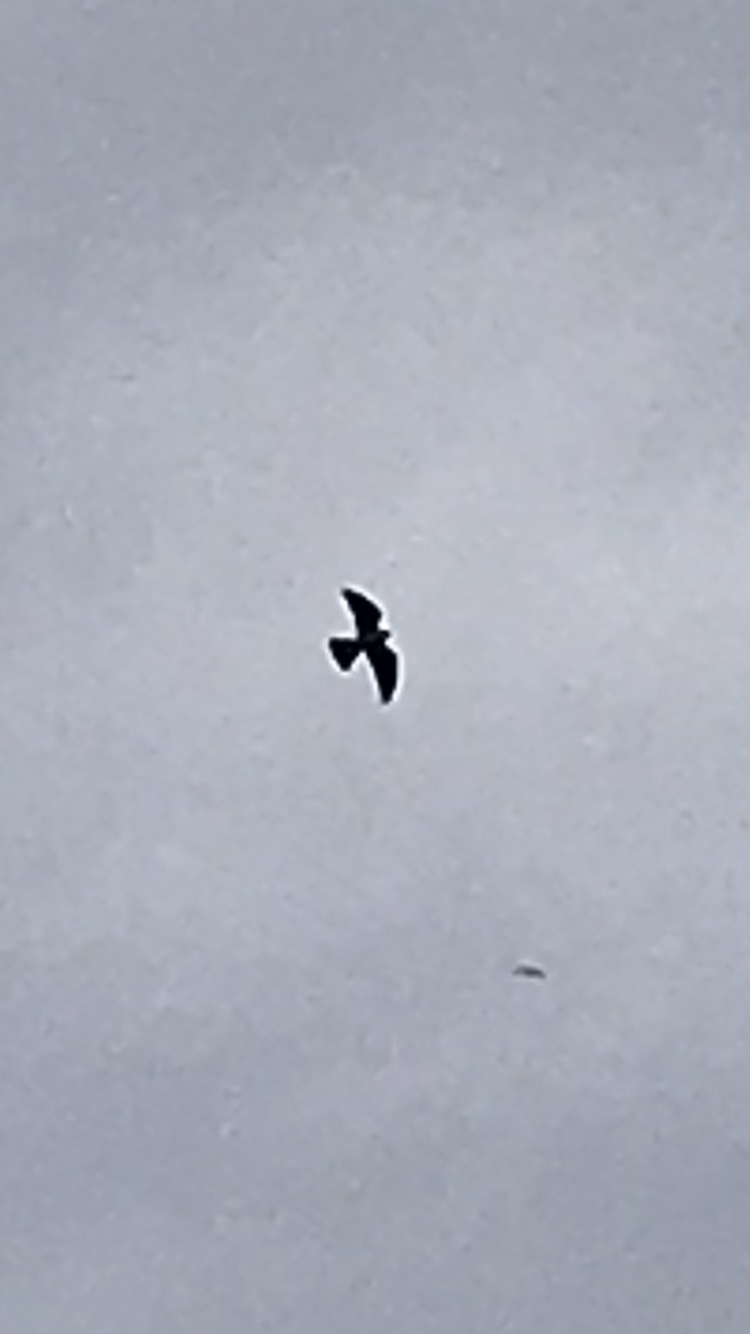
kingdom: Animalia
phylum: Chordata
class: Aves
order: Accipitriformes
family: Accipitridae
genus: Ictinia
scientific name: Ictinia mississippiensis
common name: Mississippi kite
